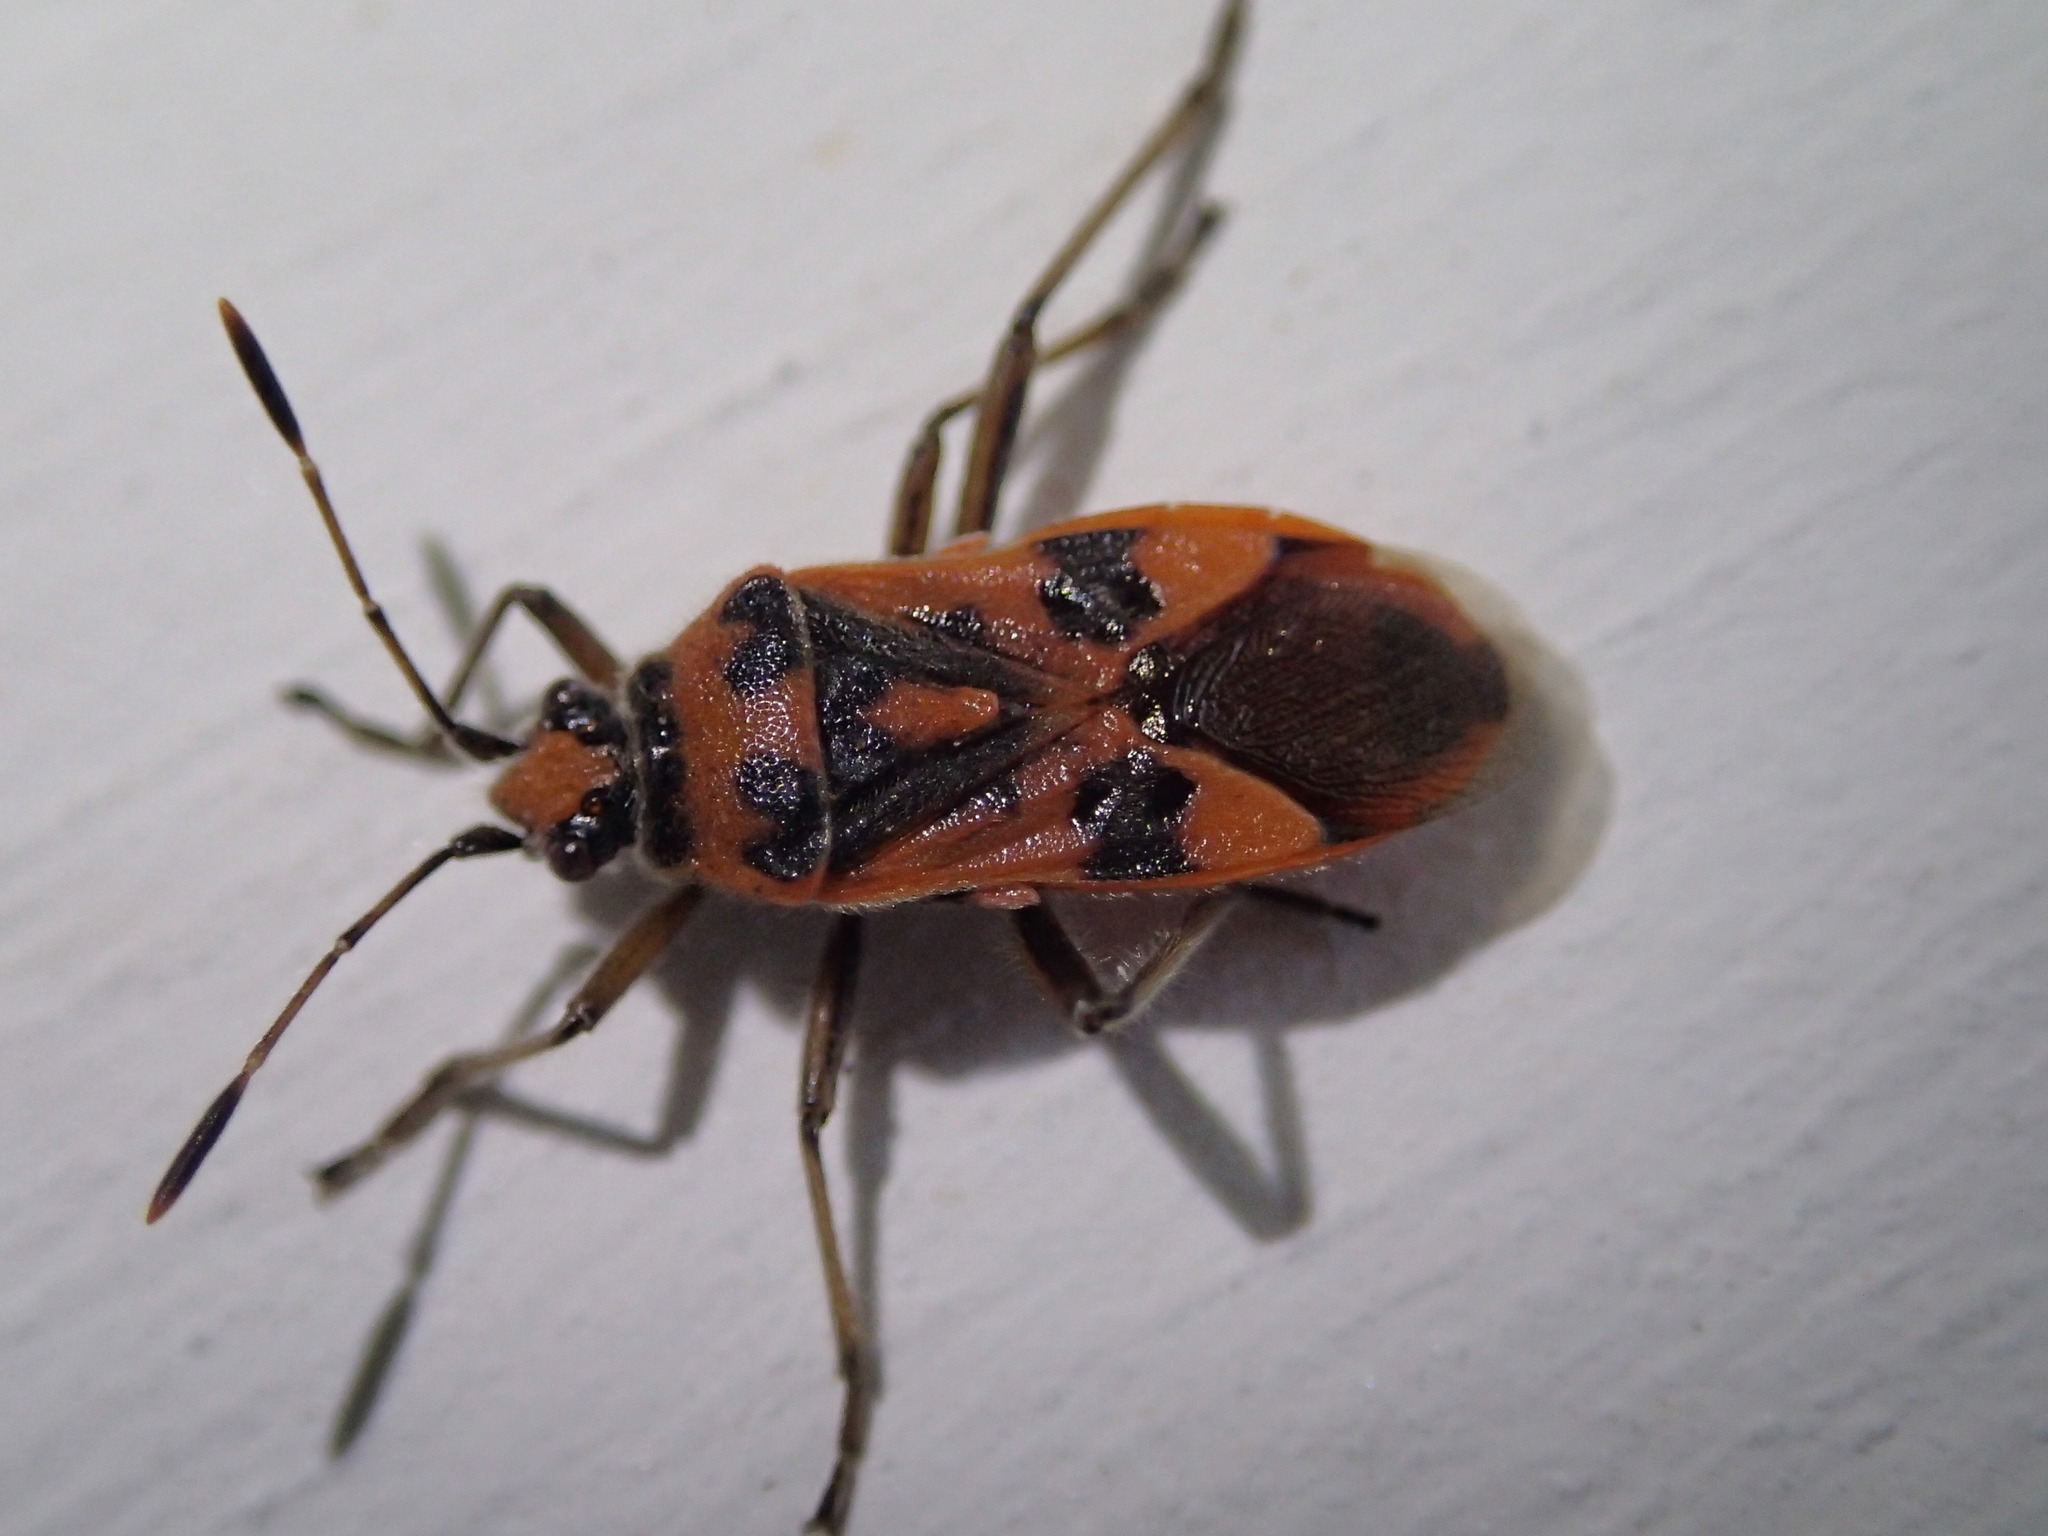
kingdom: Animalia
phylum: Arthropoda
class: Insecta
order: Hemiptera
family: Rhopalidae
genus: Corizus
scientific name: Corizus hyoscyami
